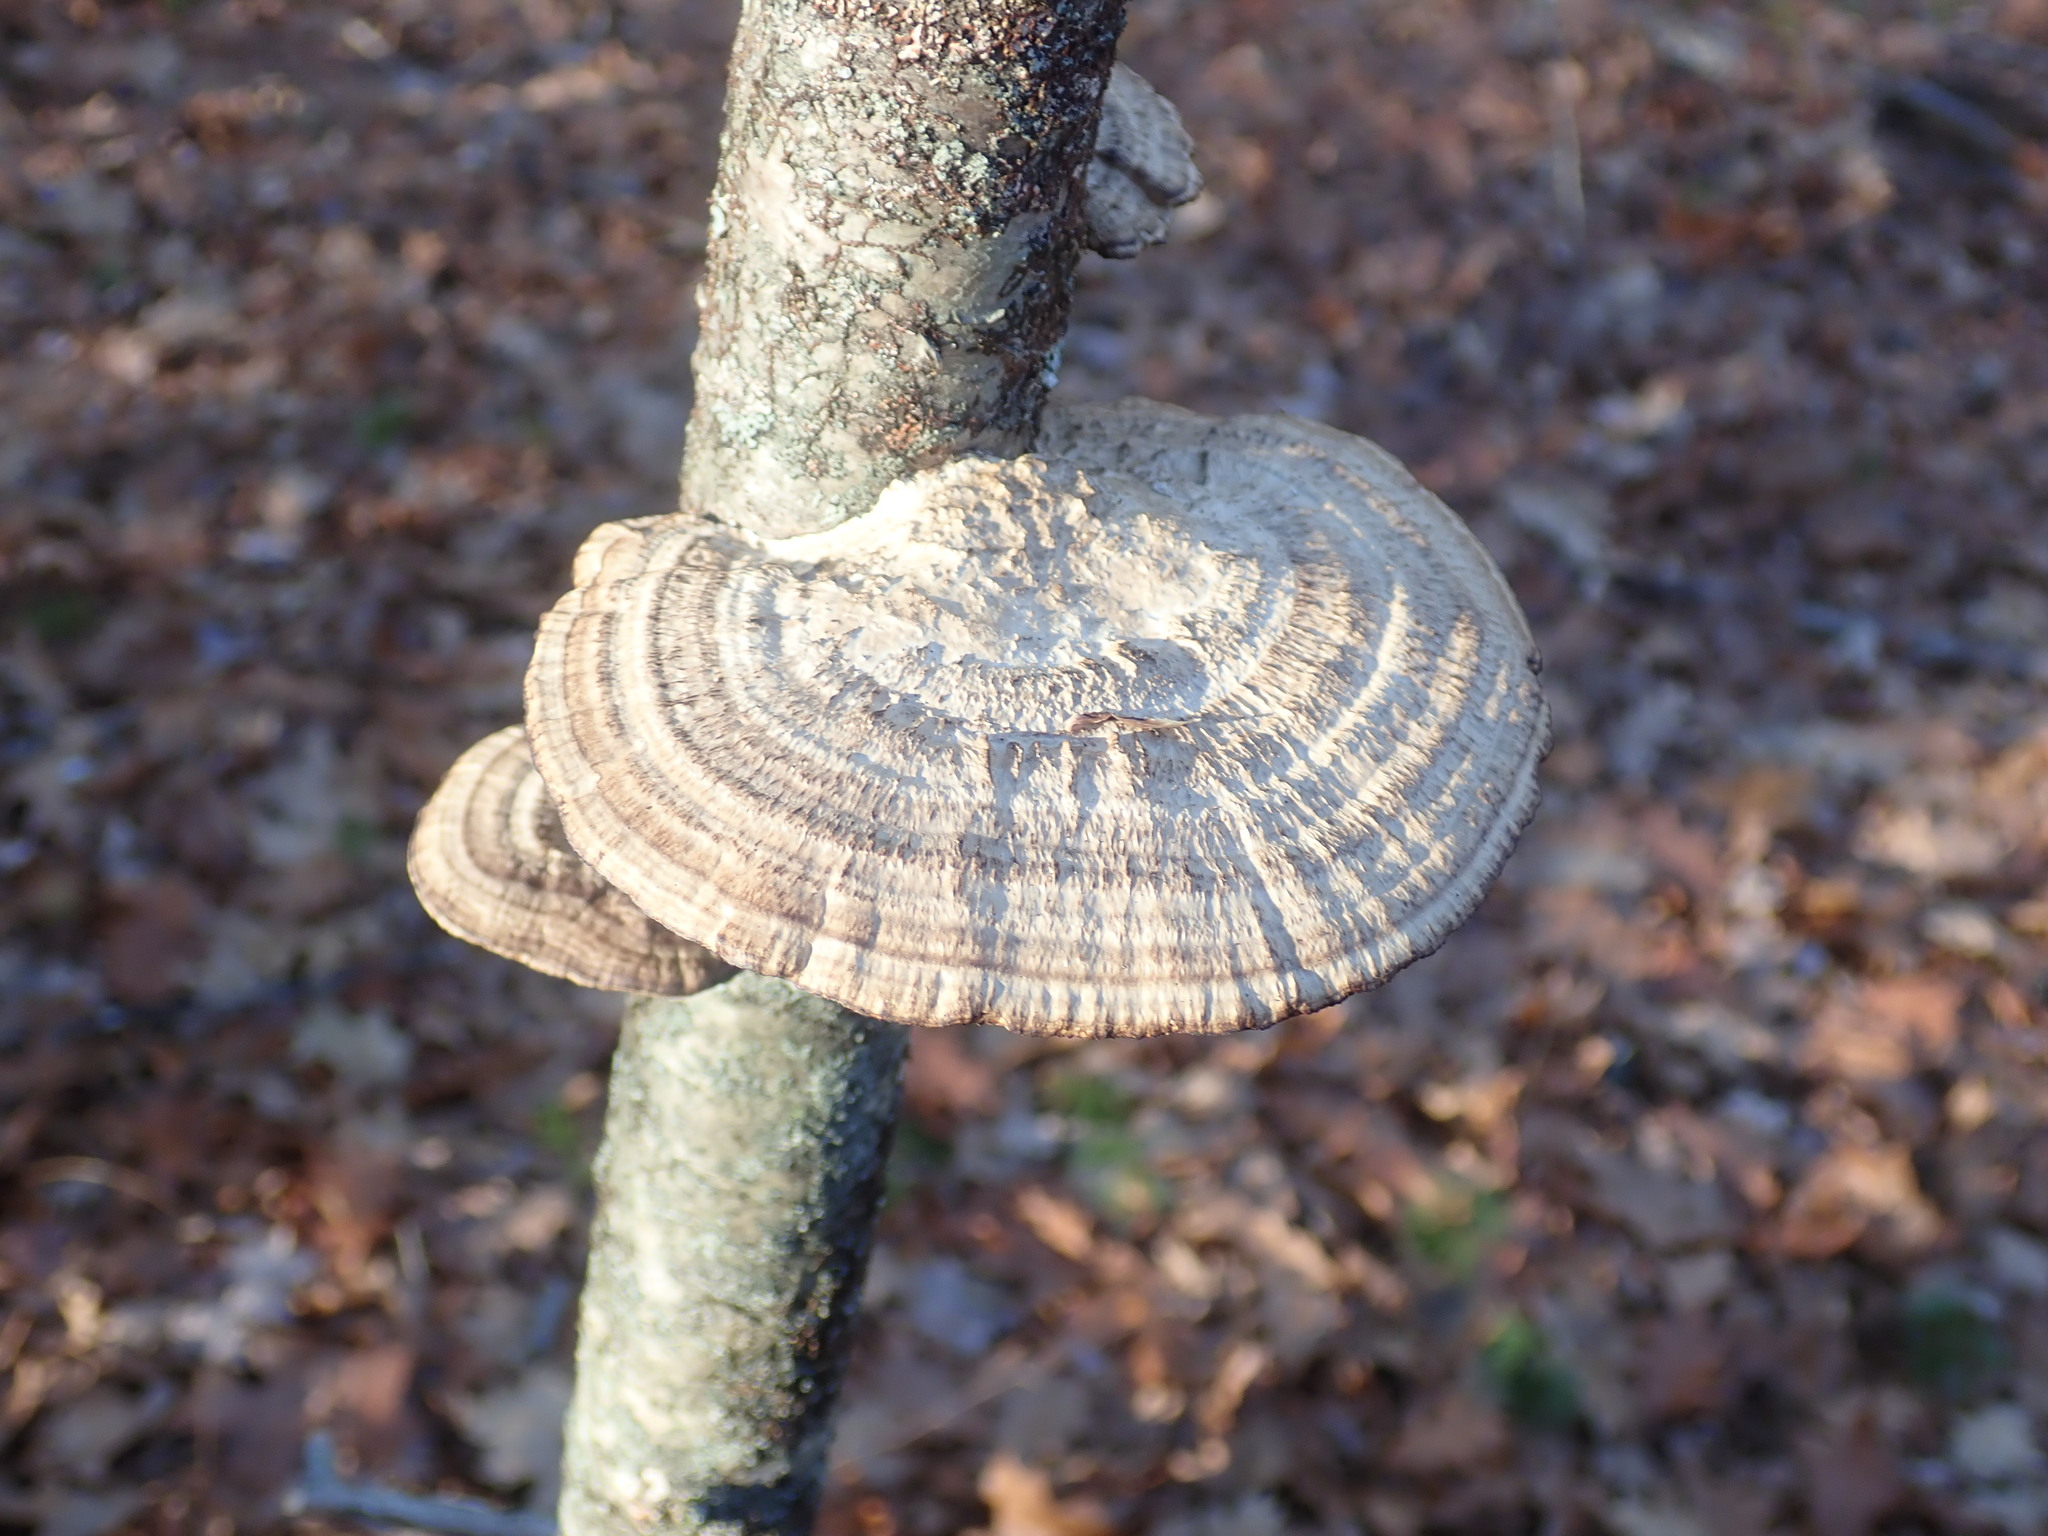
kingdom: Fungi
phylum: Basidiomycota
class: Agaricomycetes
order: Polyporales
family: Polyporaceae
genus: Daedaleopsis
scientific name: Daedaleopsis confragosa
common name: Blushing bracket
